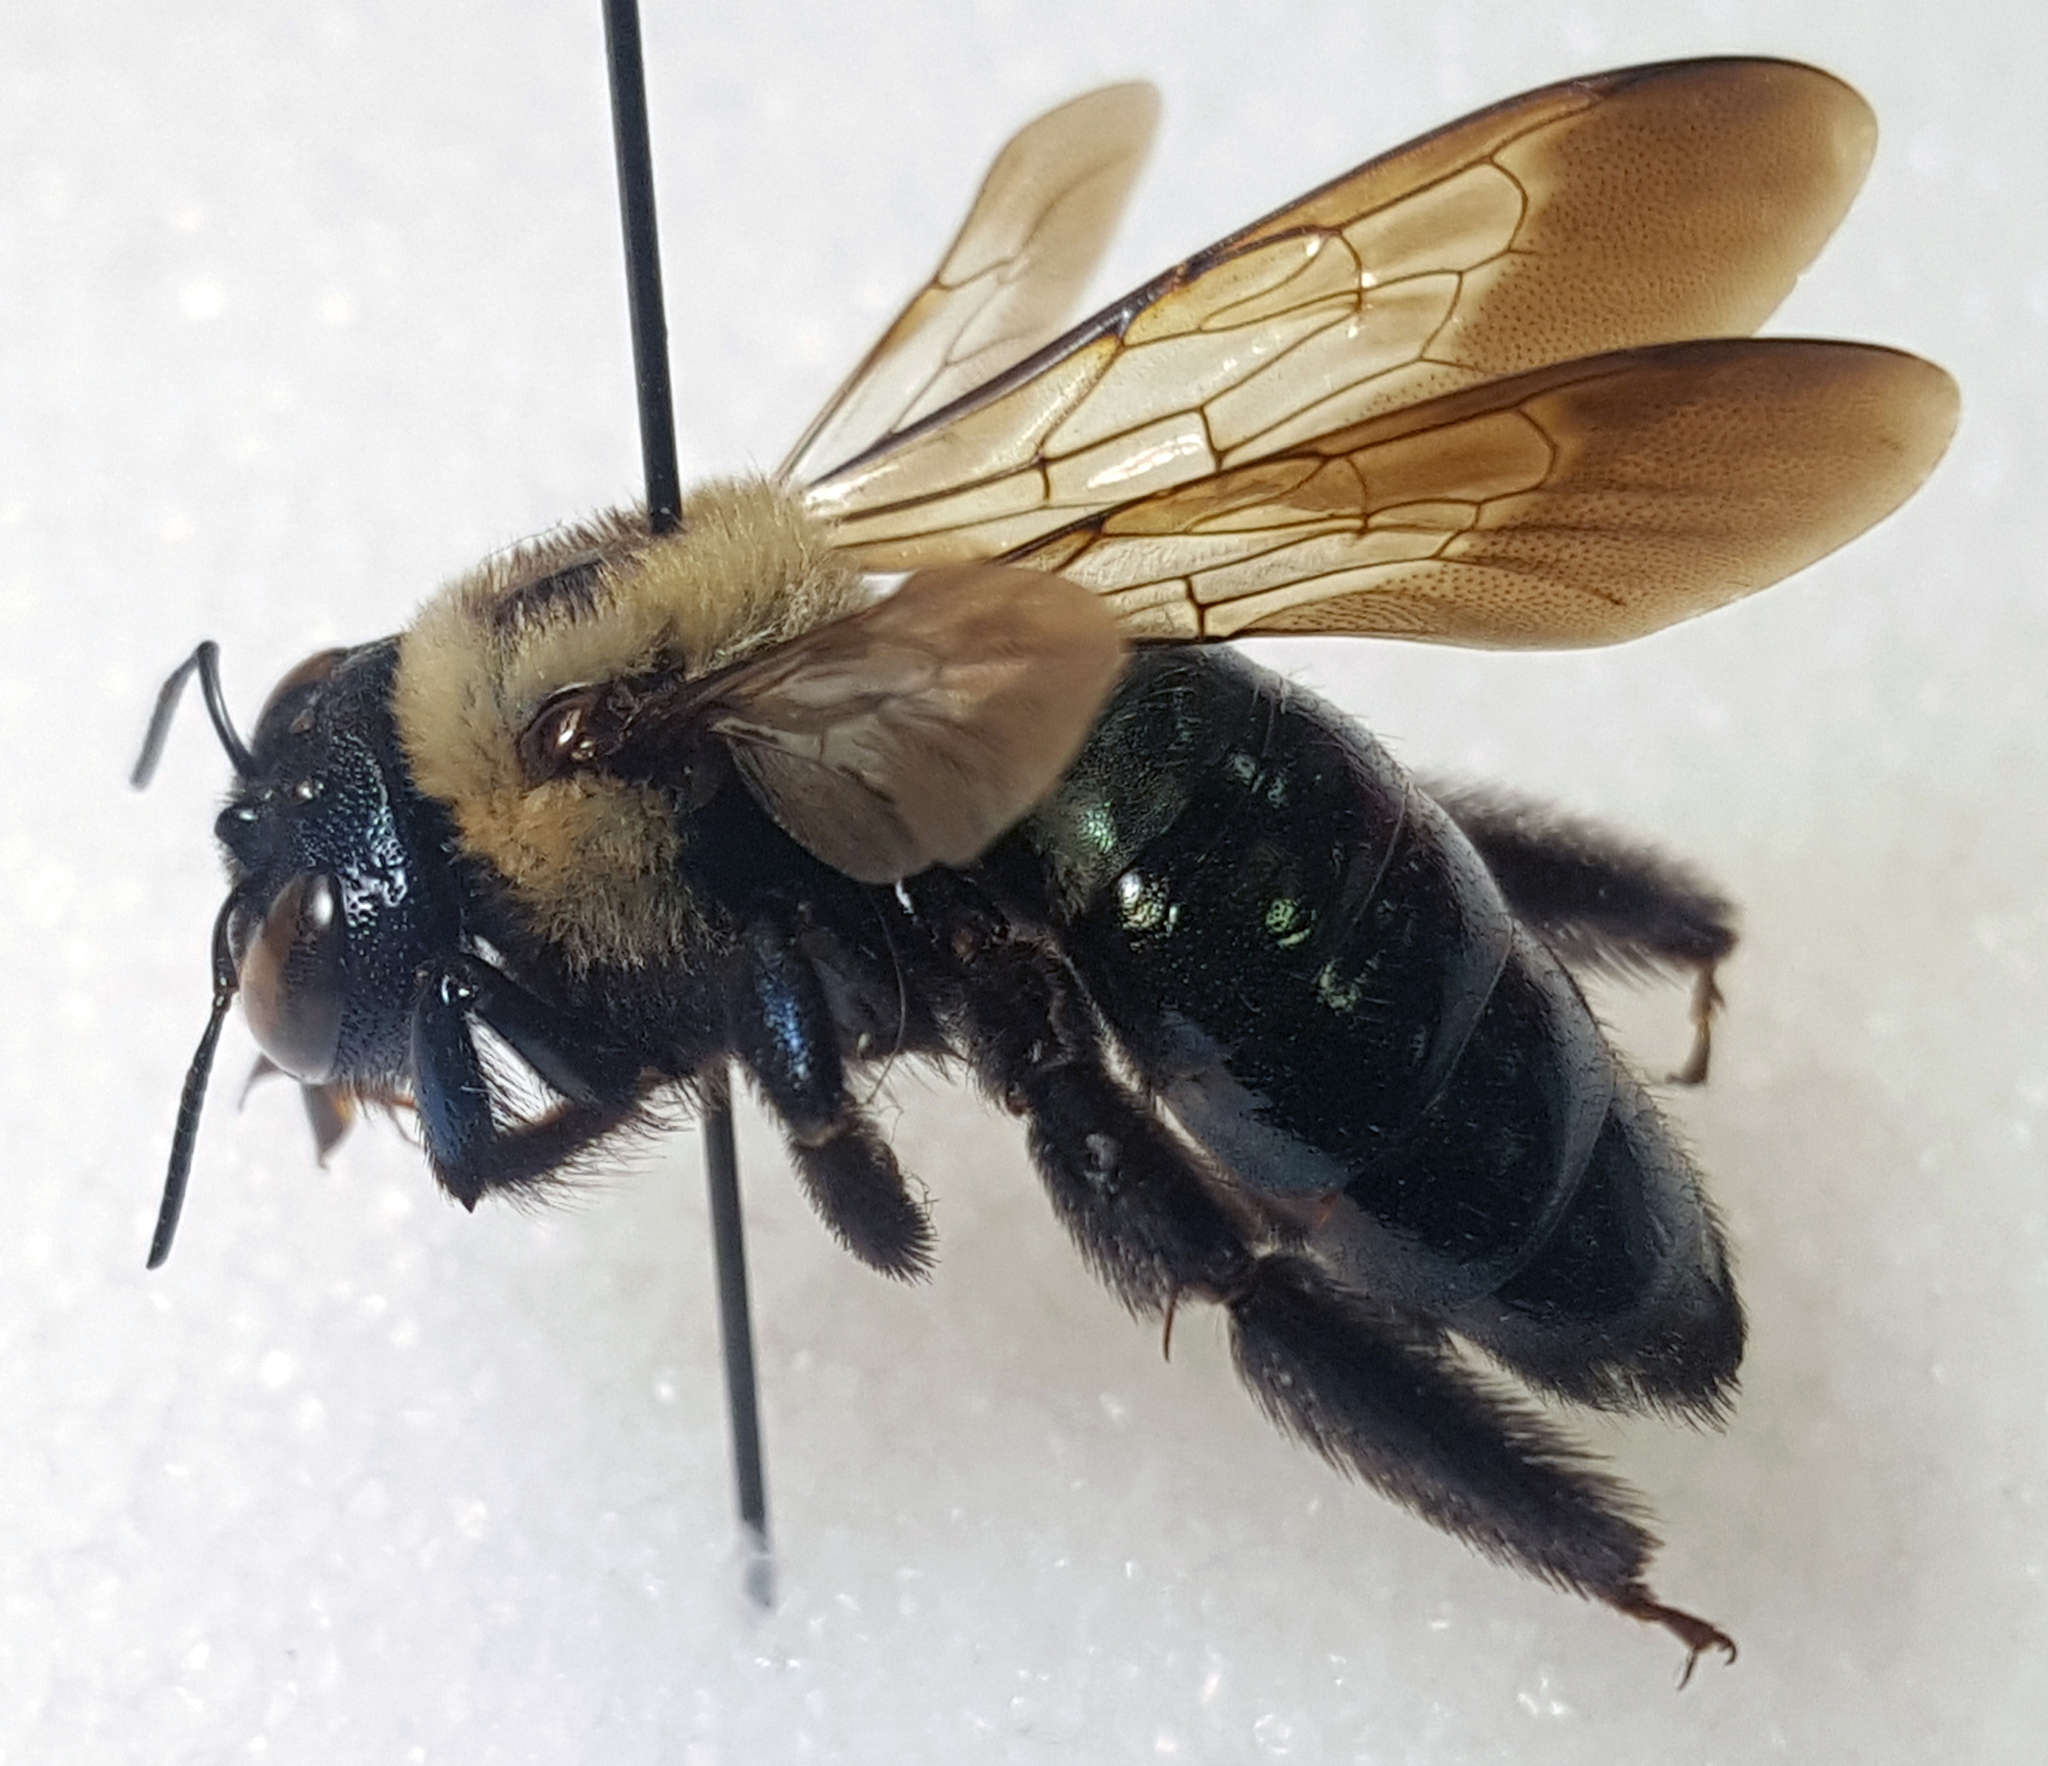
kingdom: Animalia
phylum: Arthropoda
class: Insecta
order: Hymenoptera
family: Apidae
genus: Xylocopa
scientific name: Xylocopa virginica
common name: Carpenter bee
